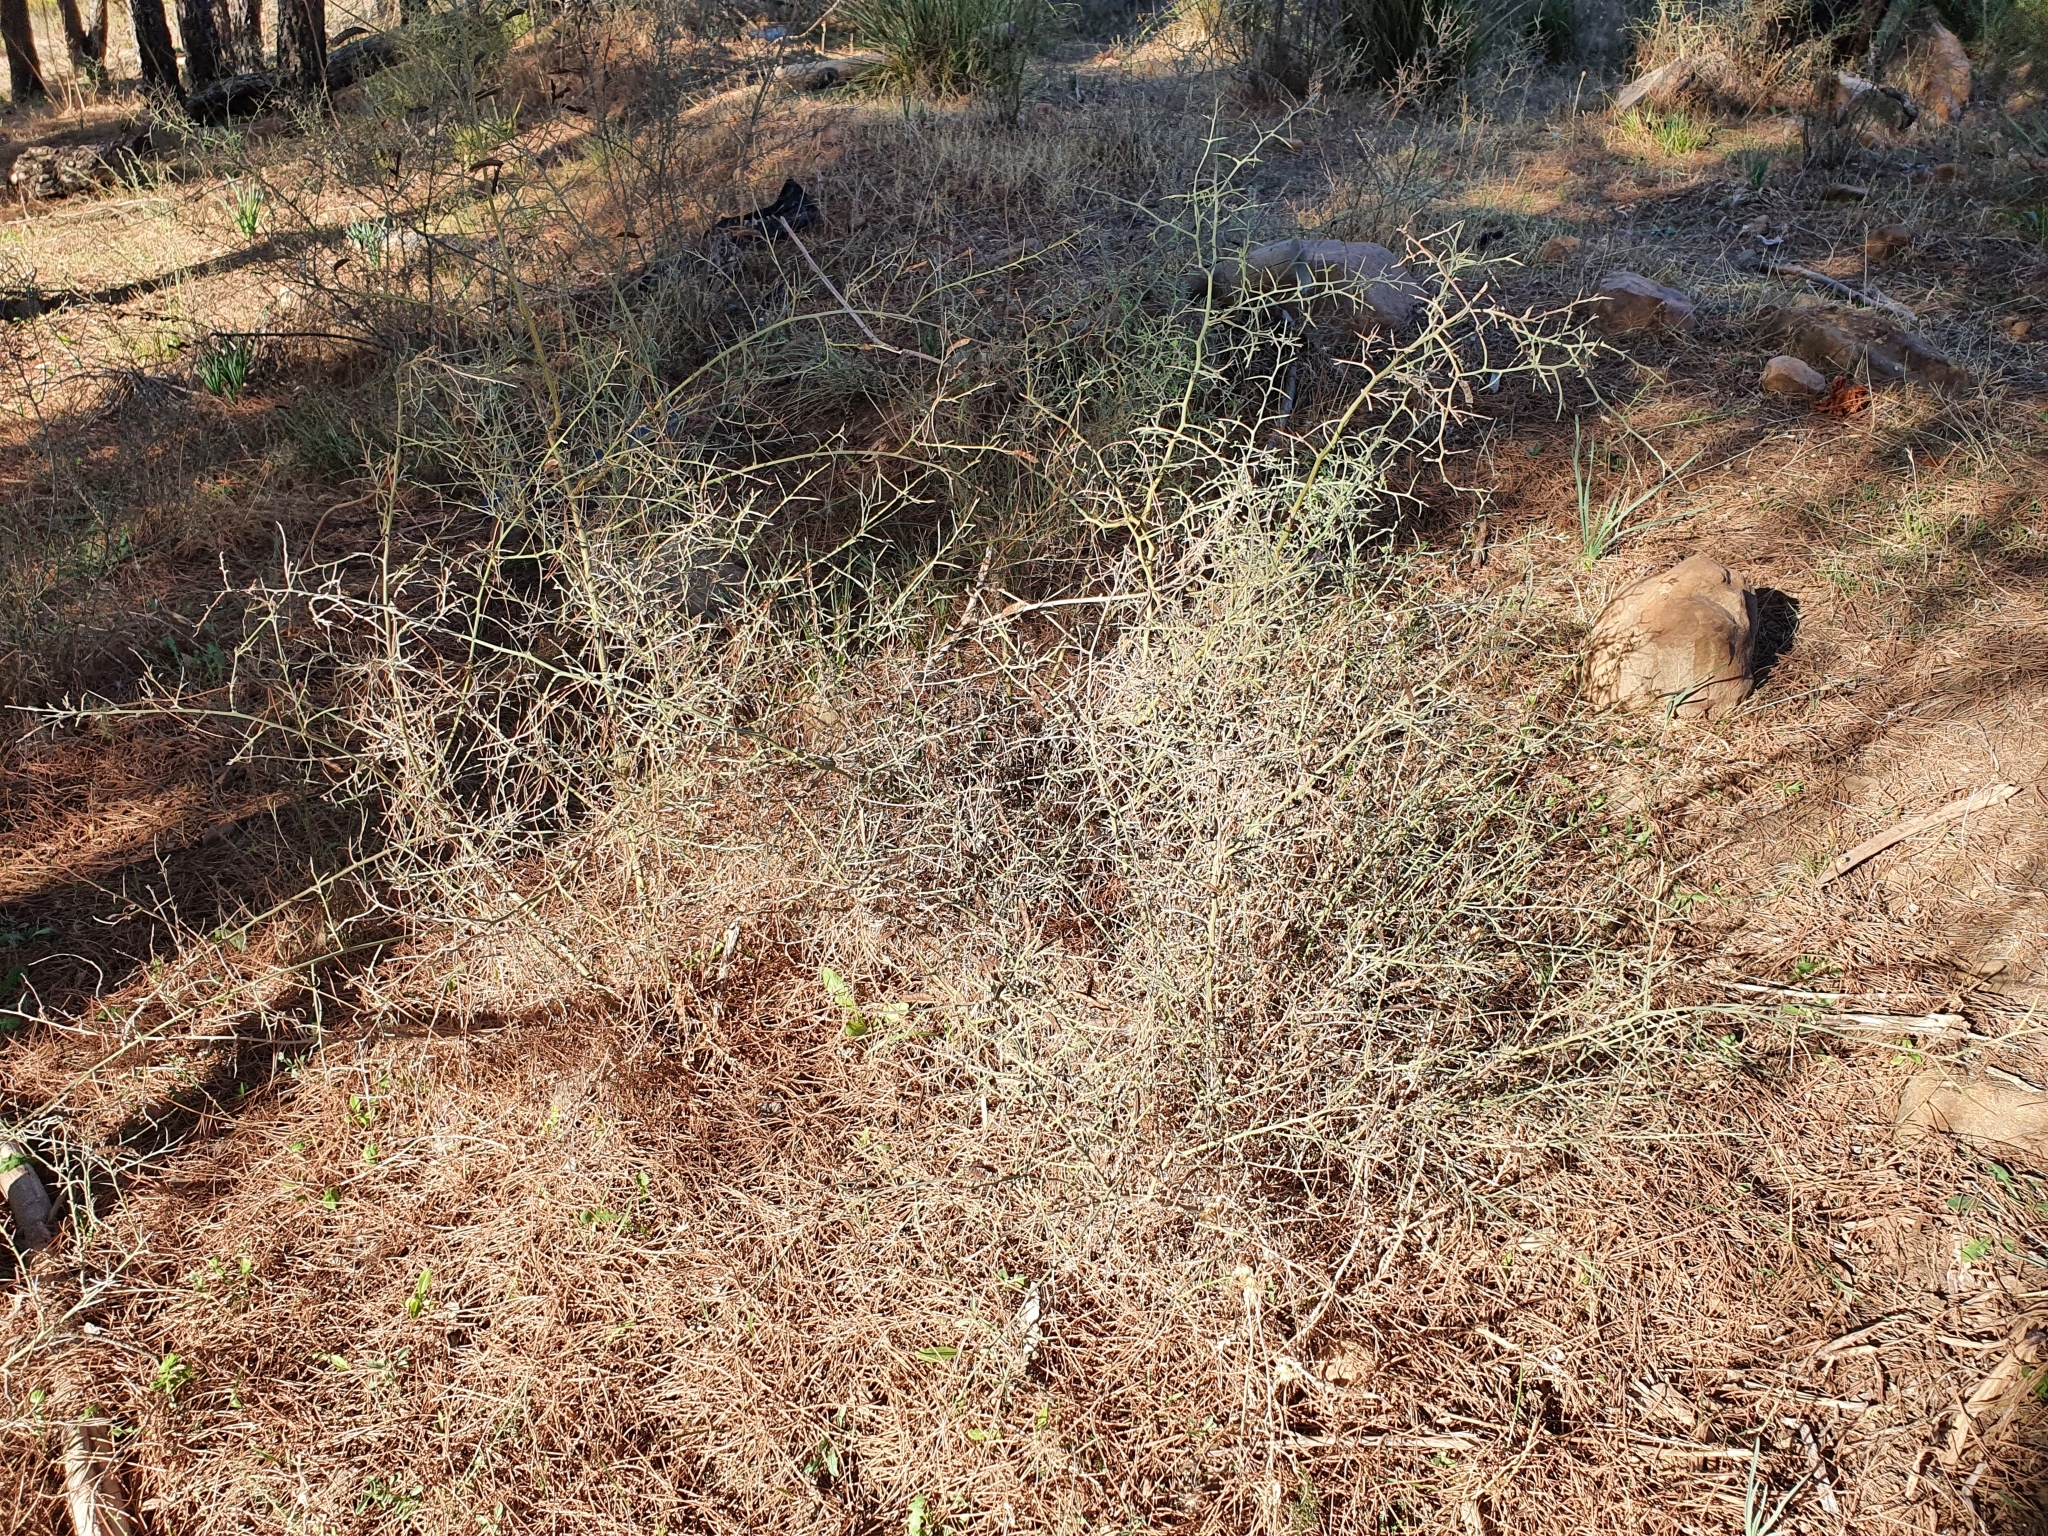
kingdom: Plantae
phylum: Tracheophyta
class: Magnoliopsida
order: Fabales
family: Fabaceae
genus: Calicotome
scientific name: Calicotome spinosa
